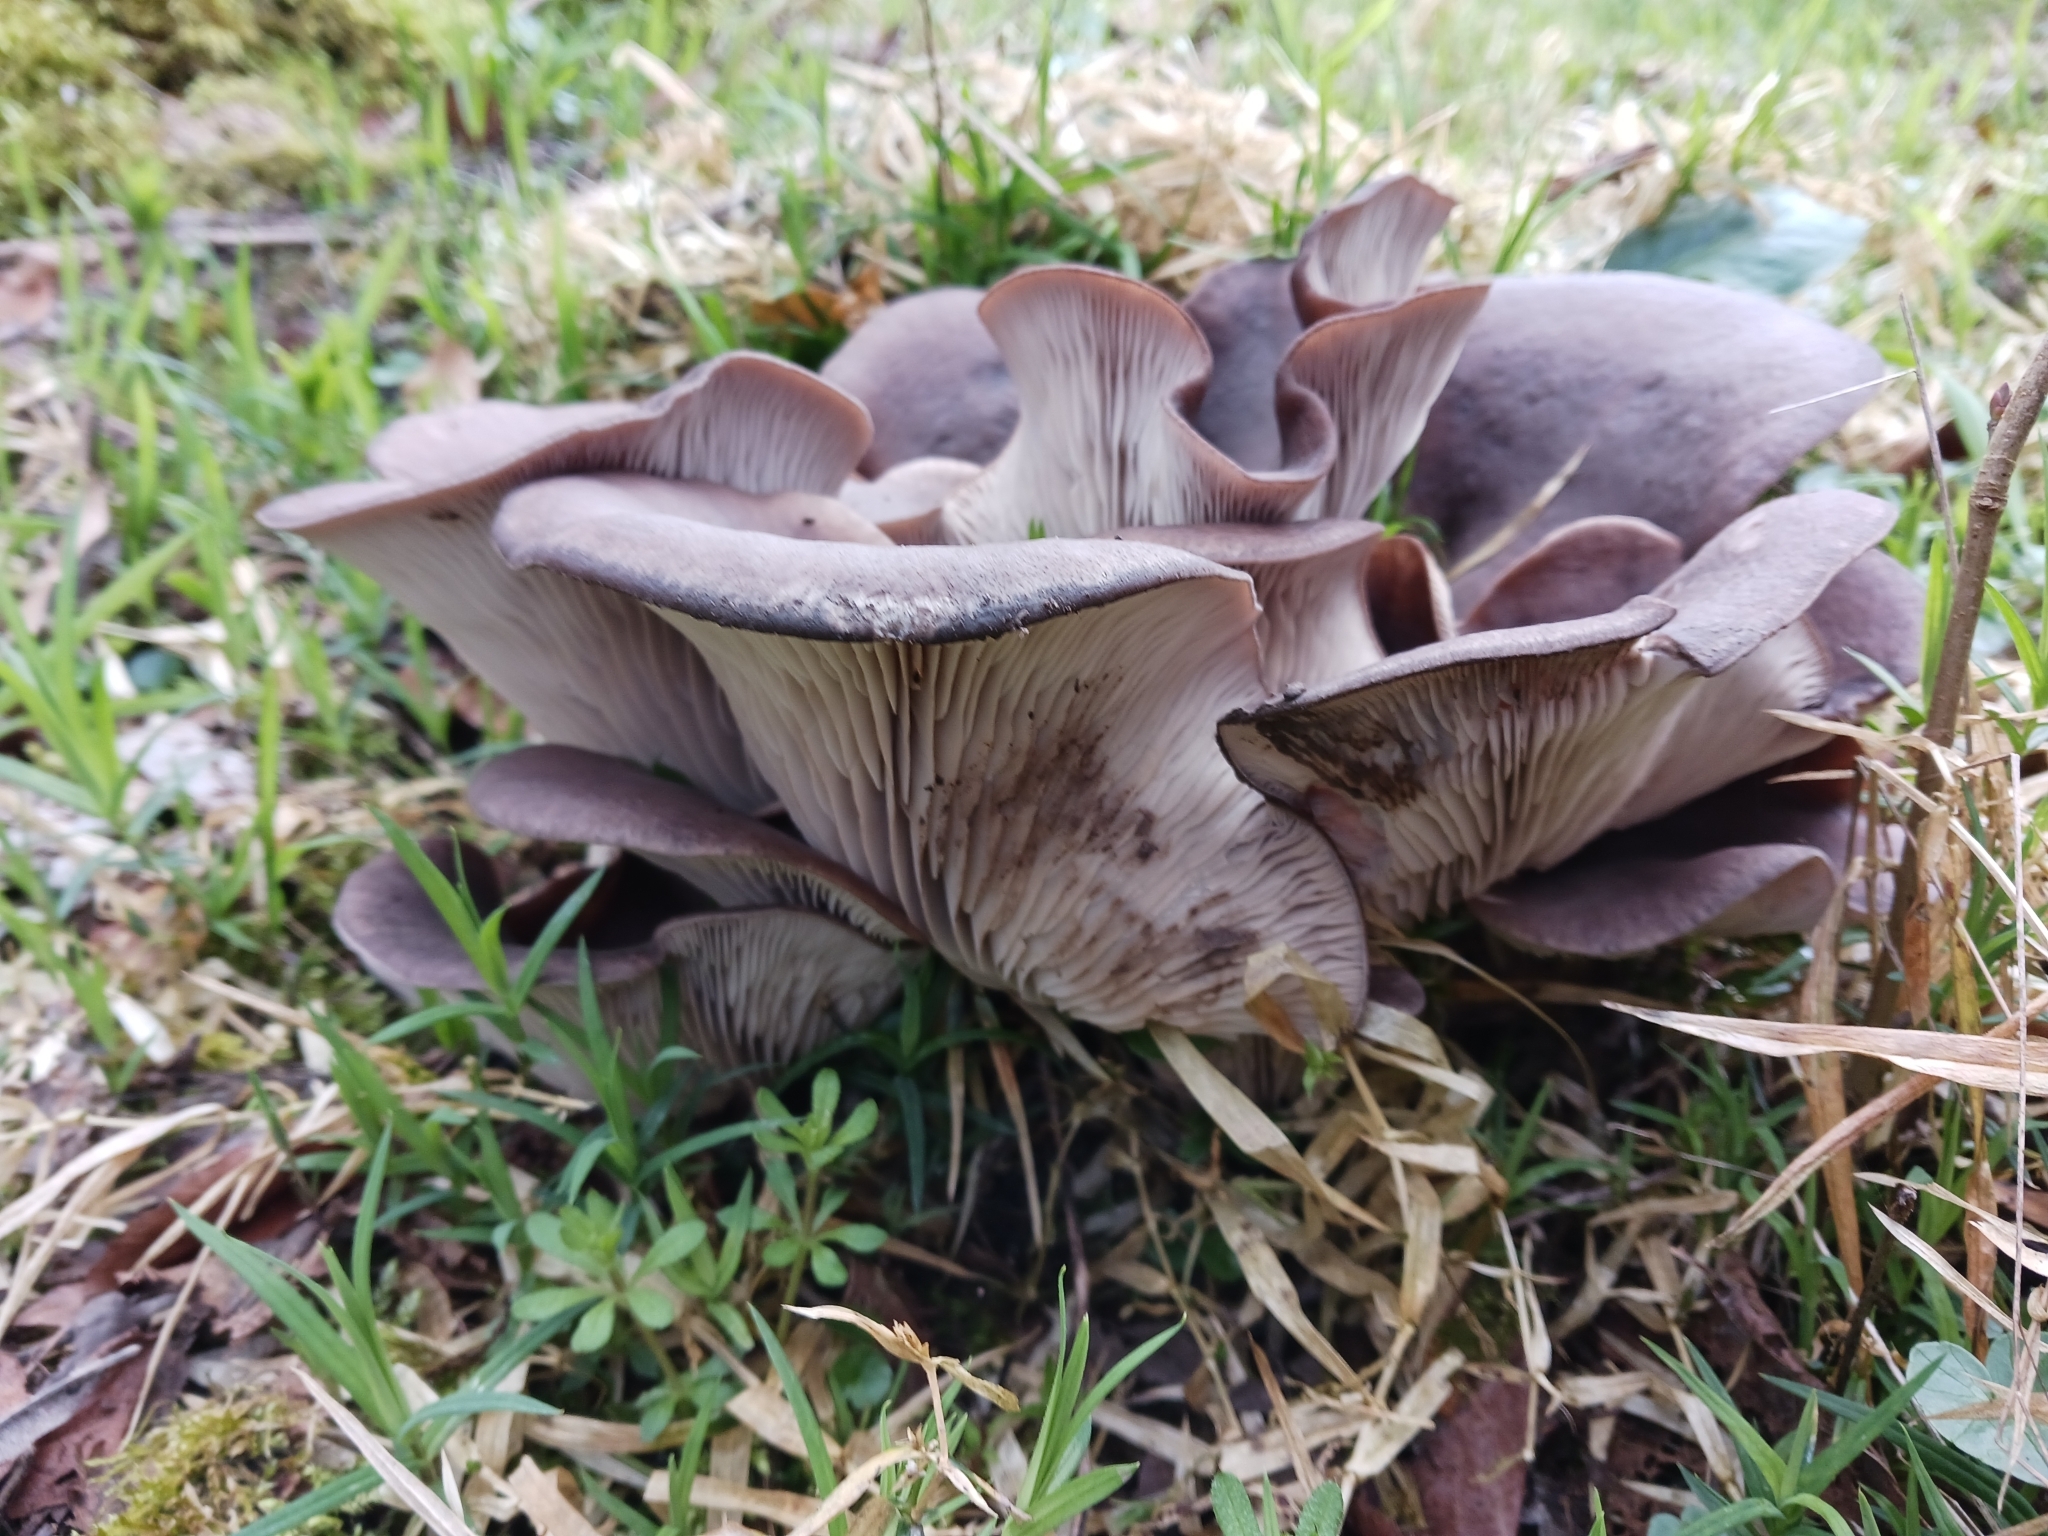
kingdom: Fungi
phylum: Basidiomycota
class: Agaricomycetes
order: Agaricales
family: Pleurotaceae
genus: Pleurotus
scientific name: Pleurotus ostreatus
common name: Oyster mushroom
